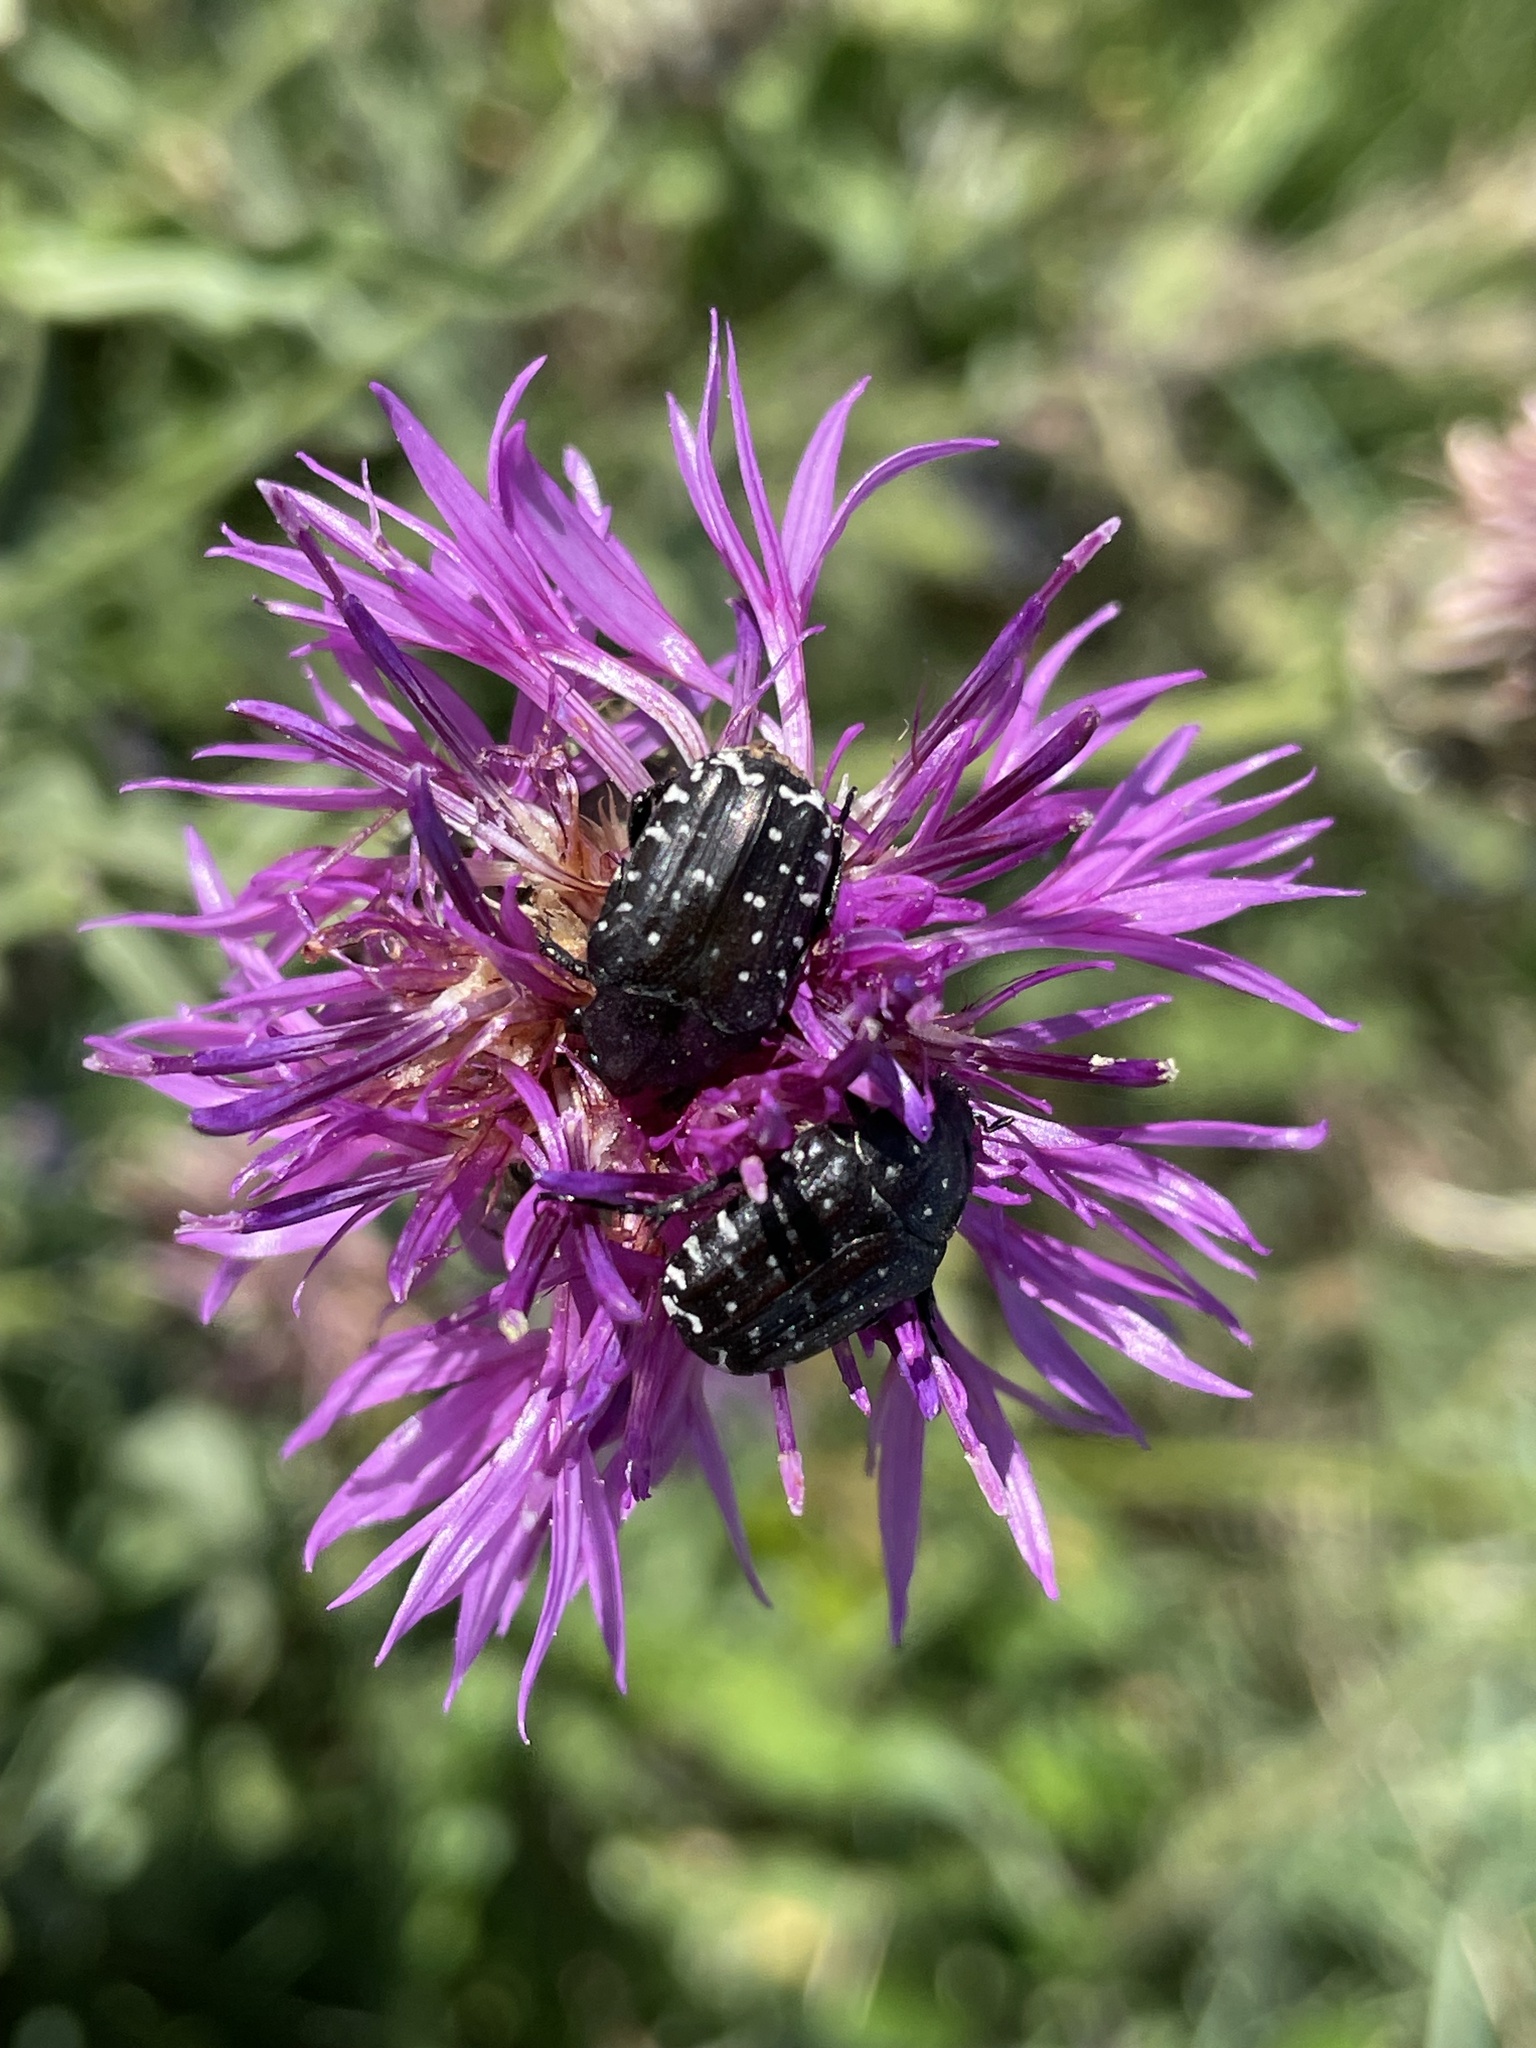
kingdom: Animalia
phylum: Arthropoda
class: Insecta
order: Coleoptera
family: Scarabaeidae
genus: Oxythyrea
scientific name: Oxythyrea funesta
